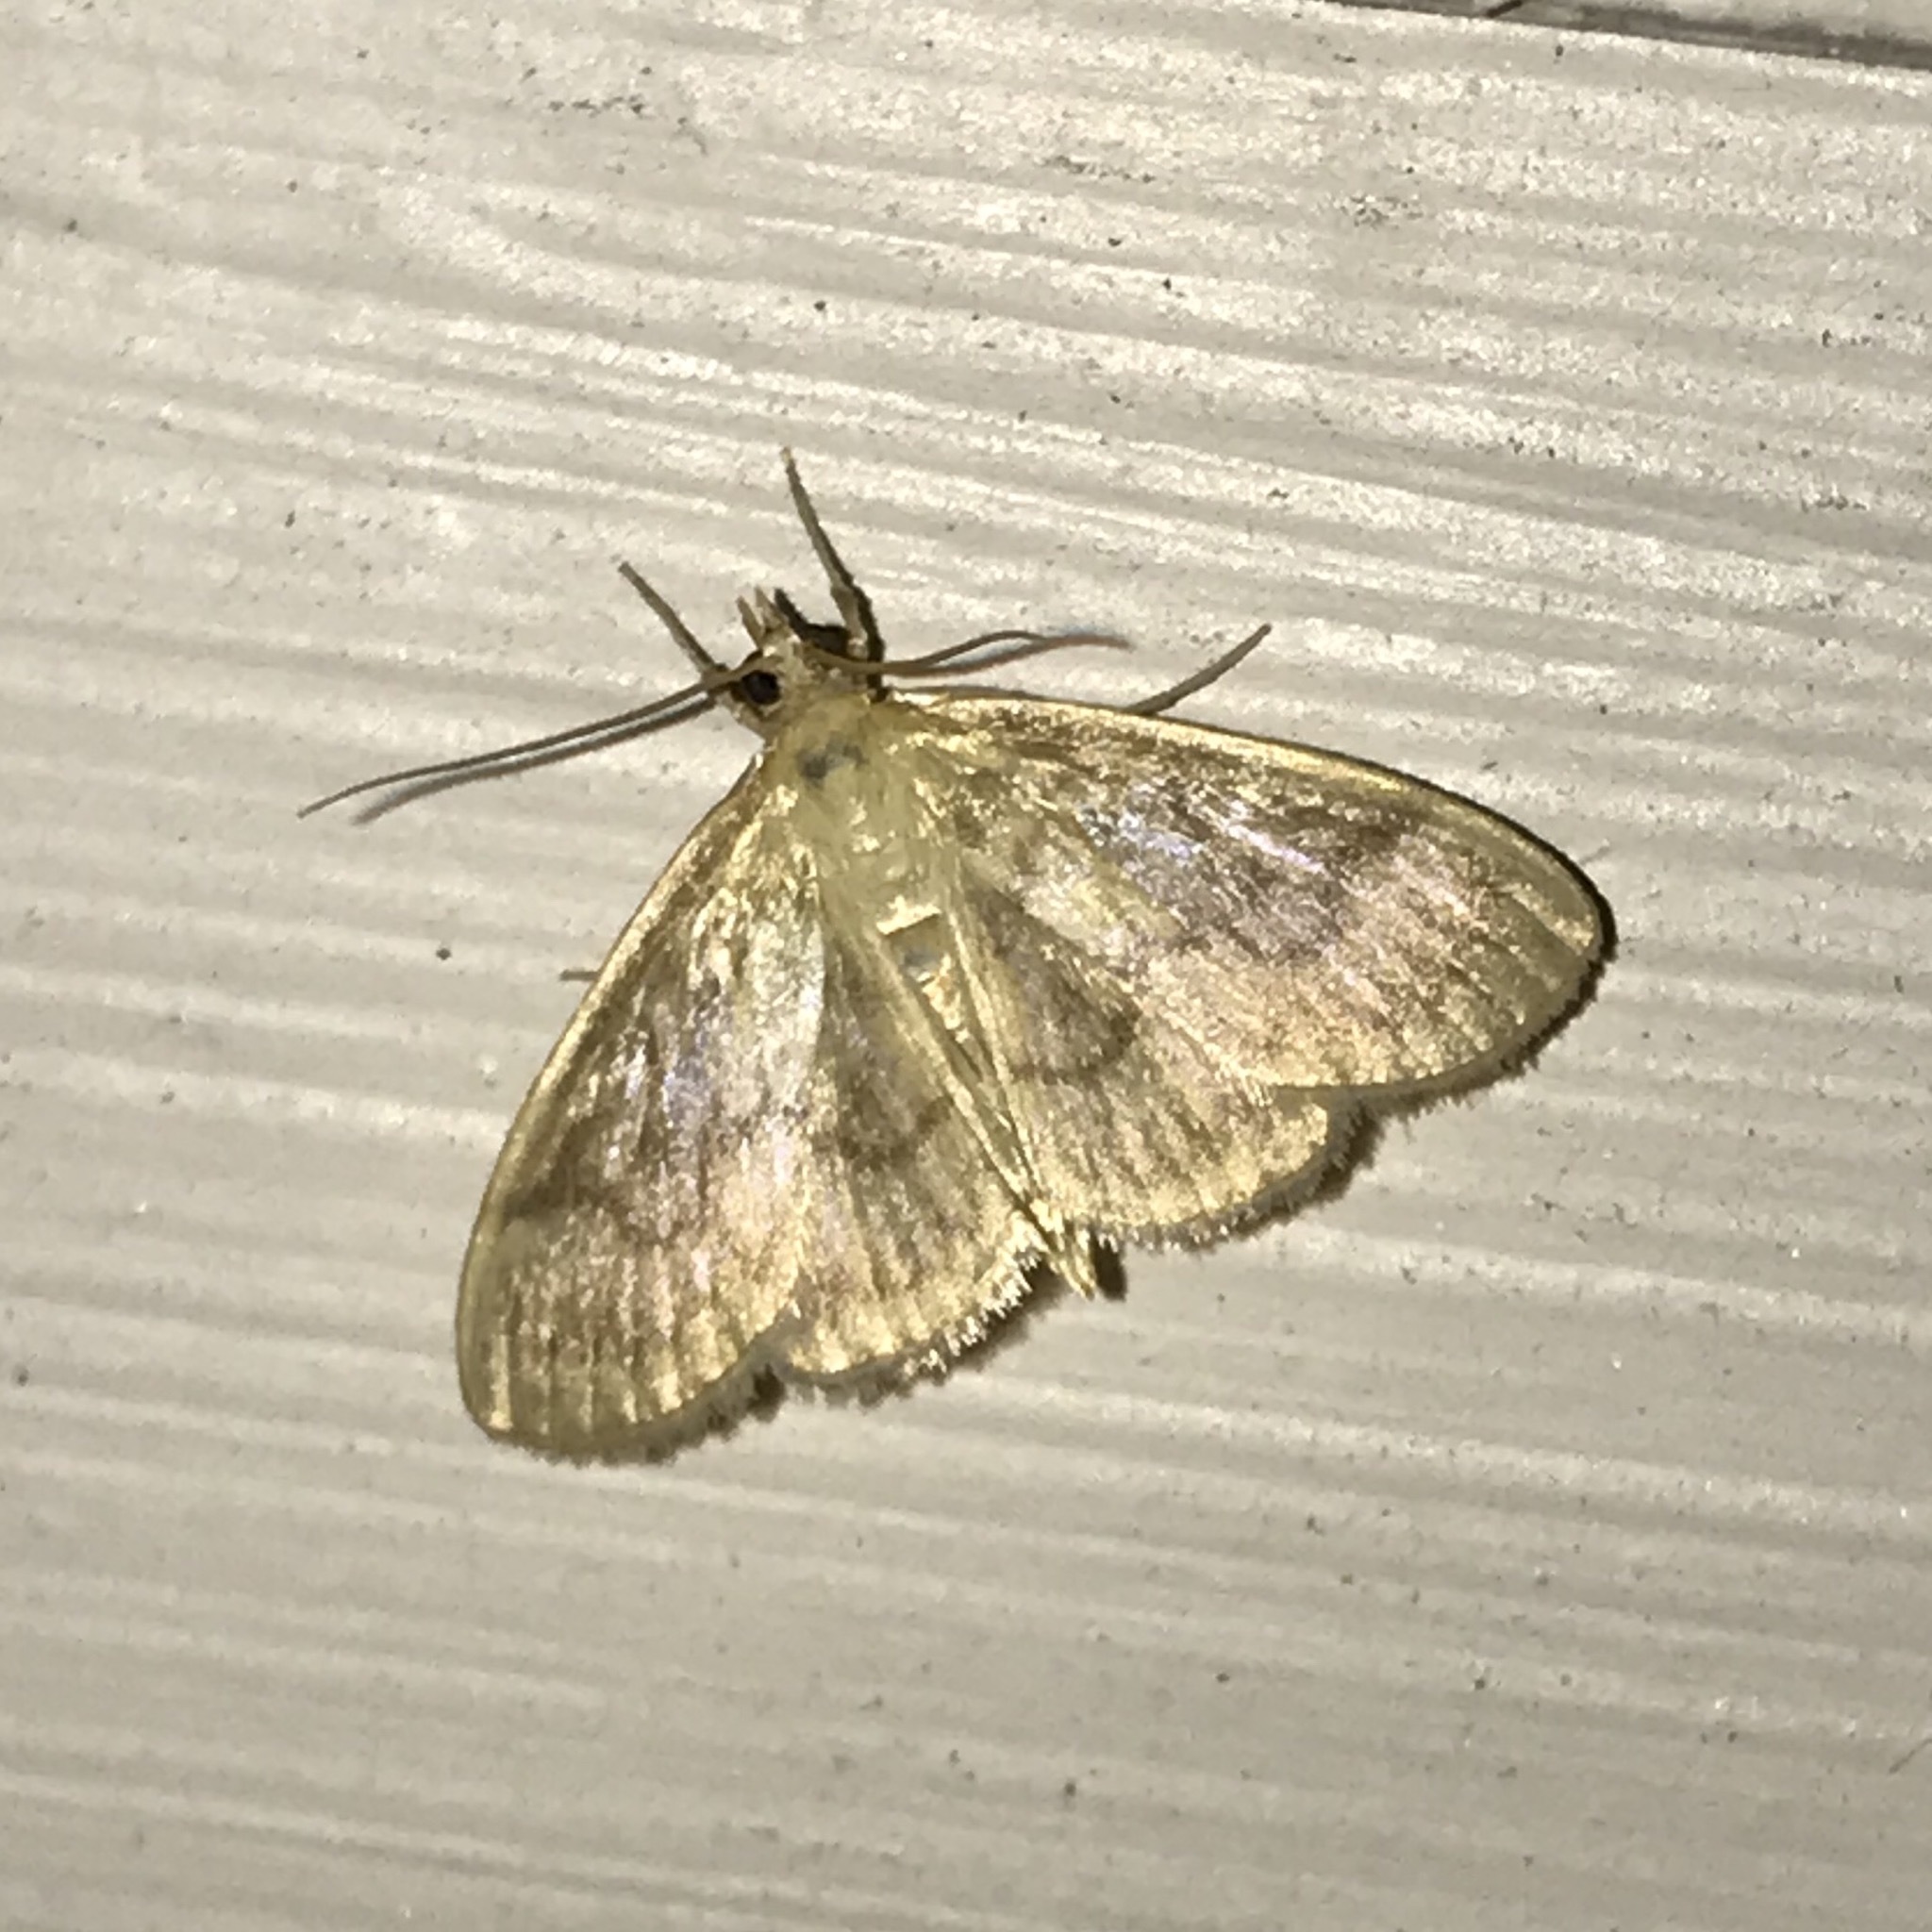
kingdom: Animalia
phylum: Arthropoda
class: Insecta
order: Lepidoptera
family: Crambidae
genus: Crocidophora
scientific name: Crocidophora serratissimalis
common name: Saw-toothed crocidophora moth
